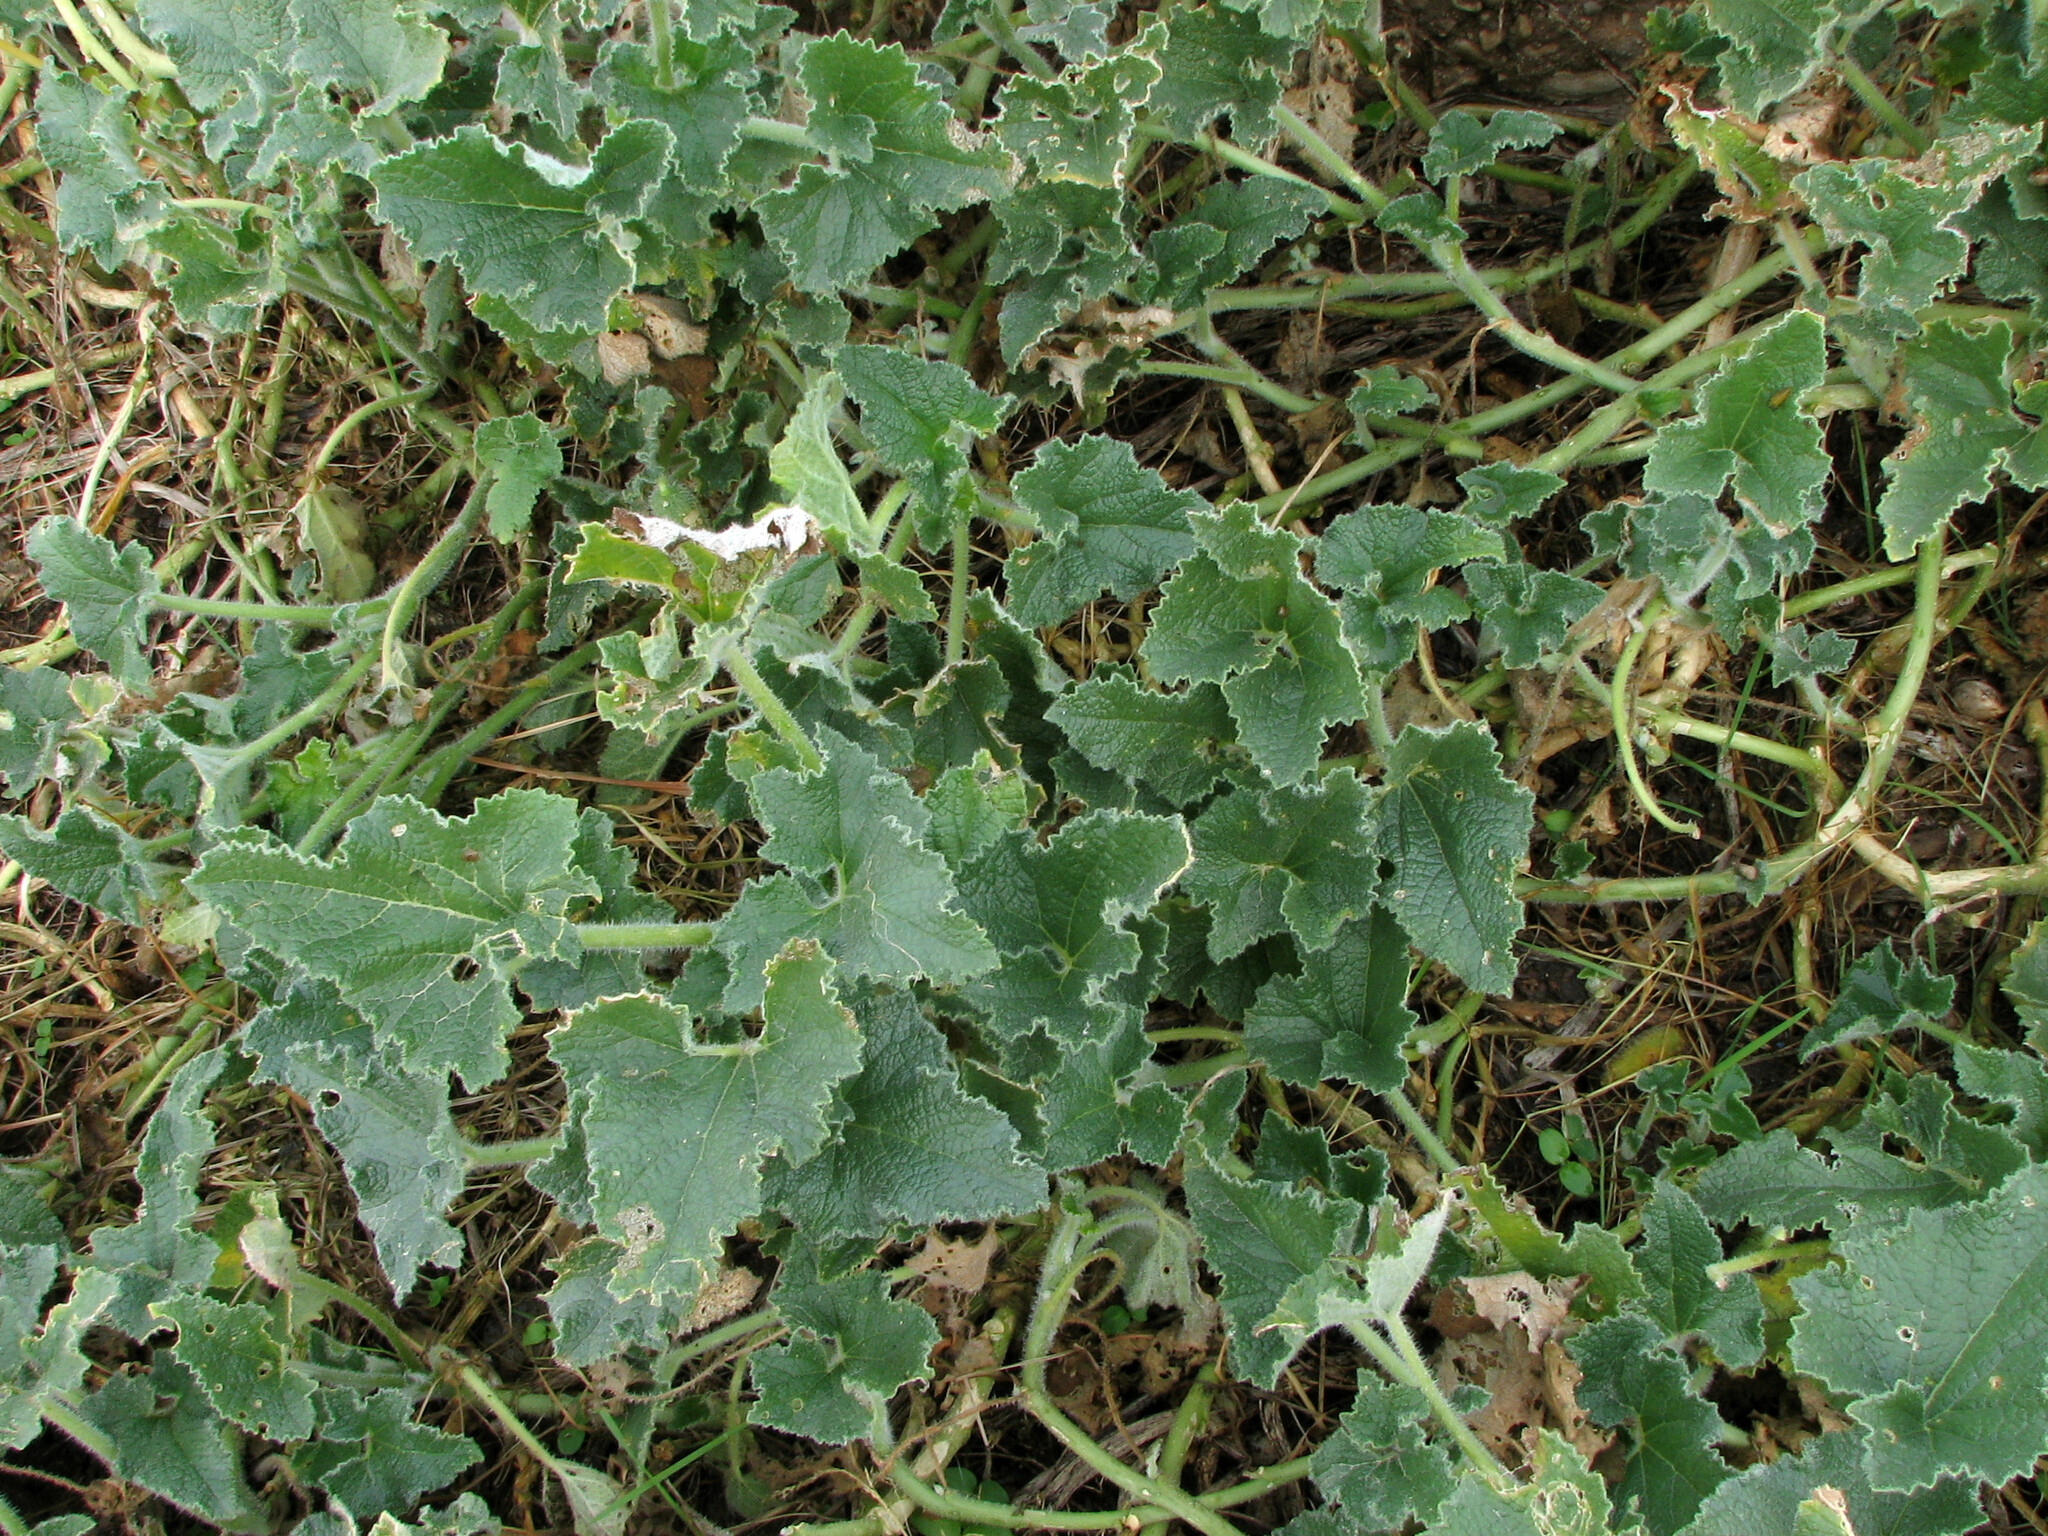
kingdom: Plantae
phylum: Tracheophyta
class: Magnoliopsida
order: Cucurbitales
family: Cucurbitaceae
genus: Ecballium
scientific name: Ecballium elaterium
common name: Squirting cucumber
